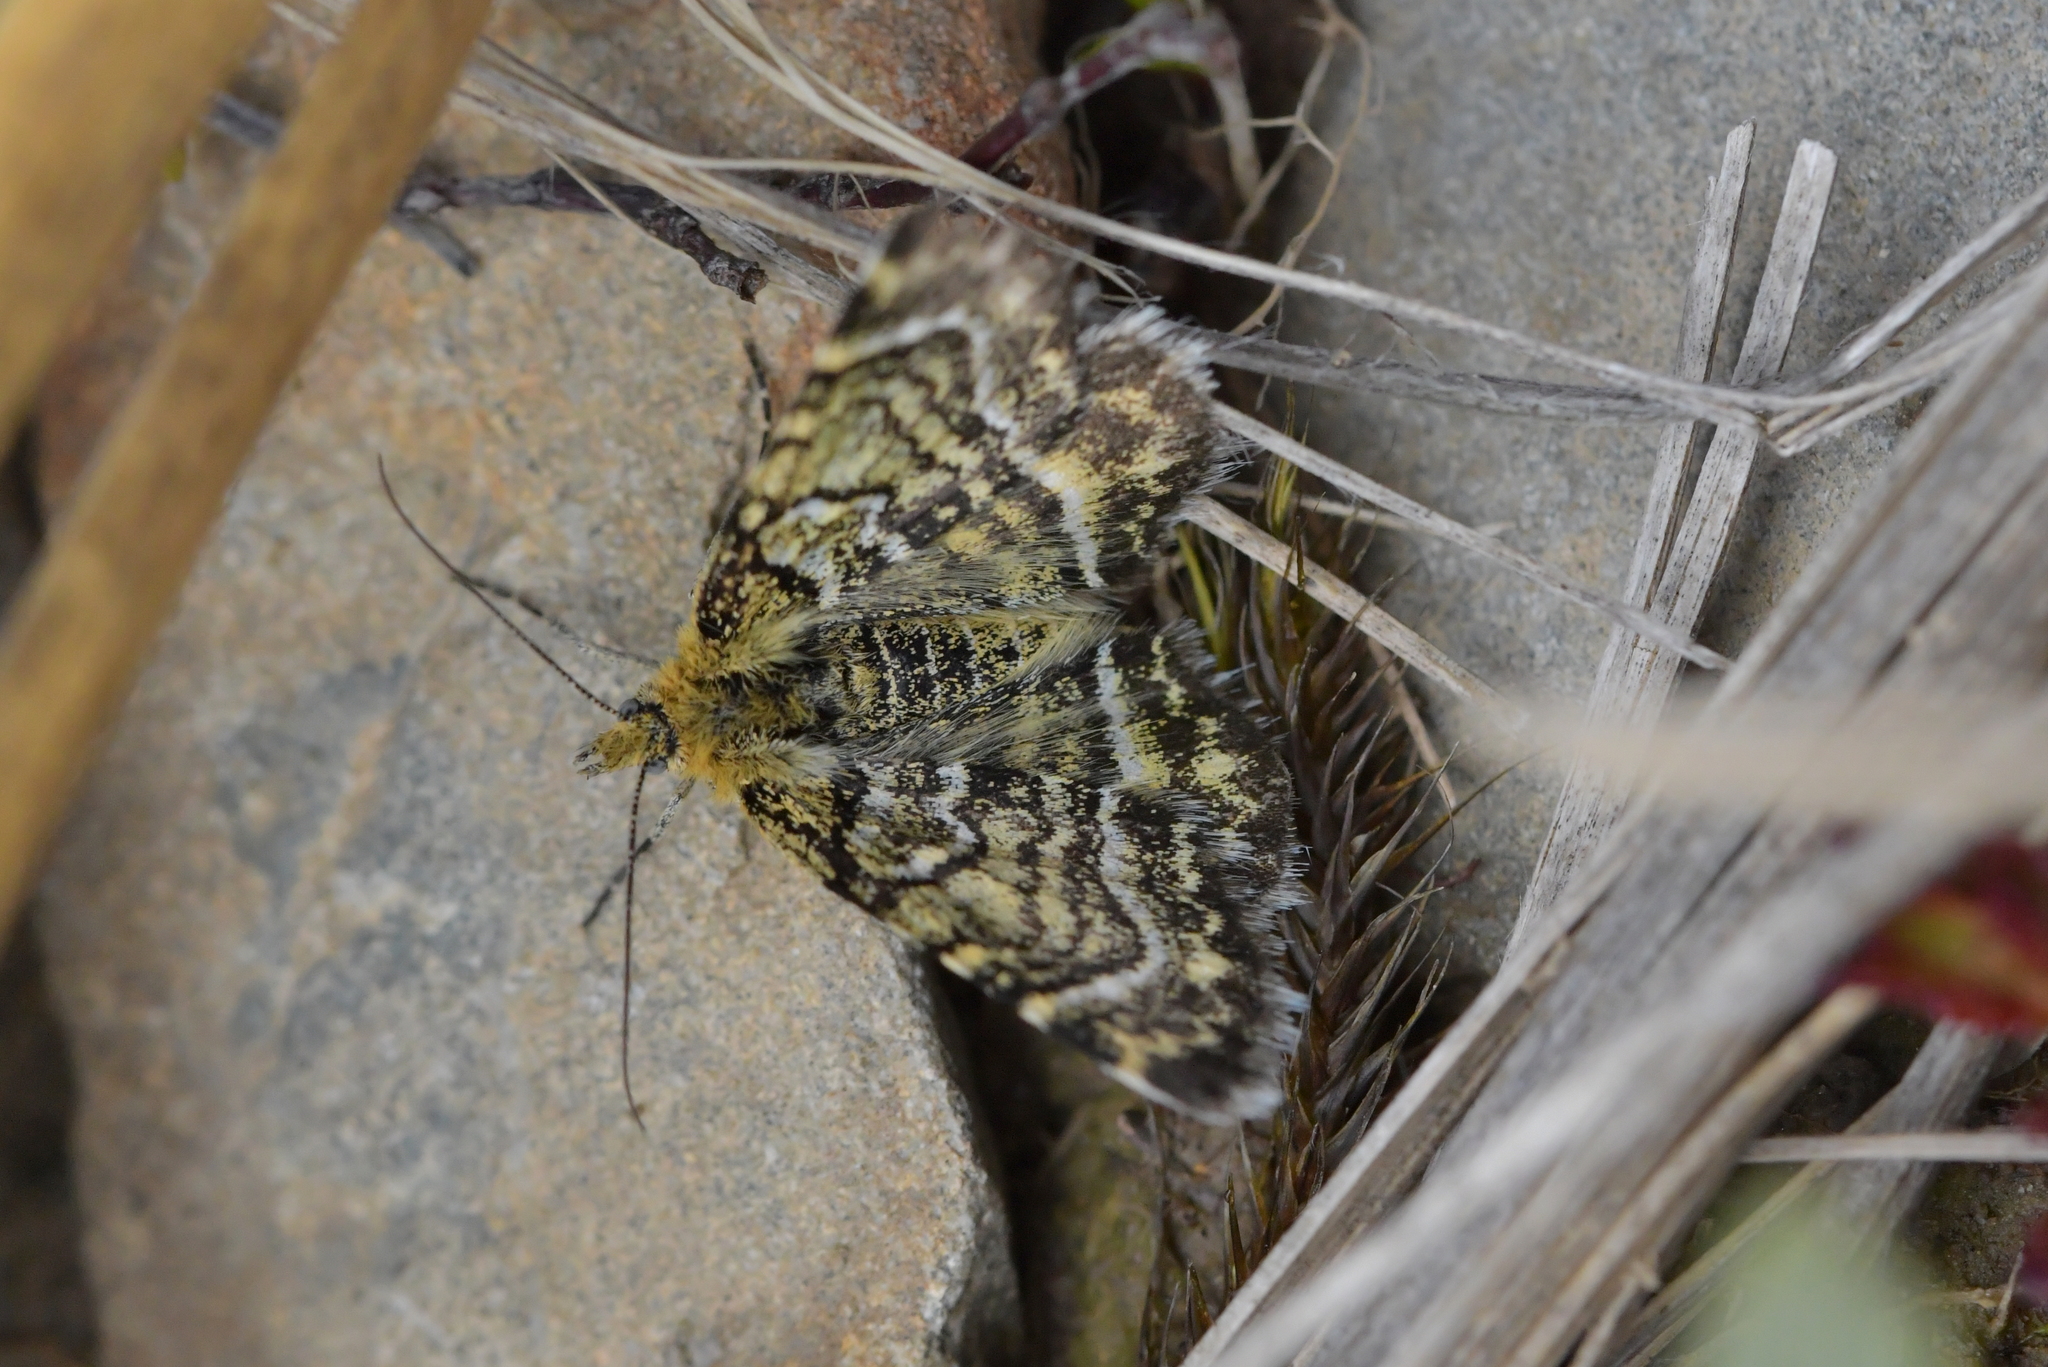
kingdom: Animalia
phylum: Arthropoda
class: Insecta
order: Lepidoptera
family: Geometridae
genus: Notoreas
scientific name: Notoreas mechanitis
